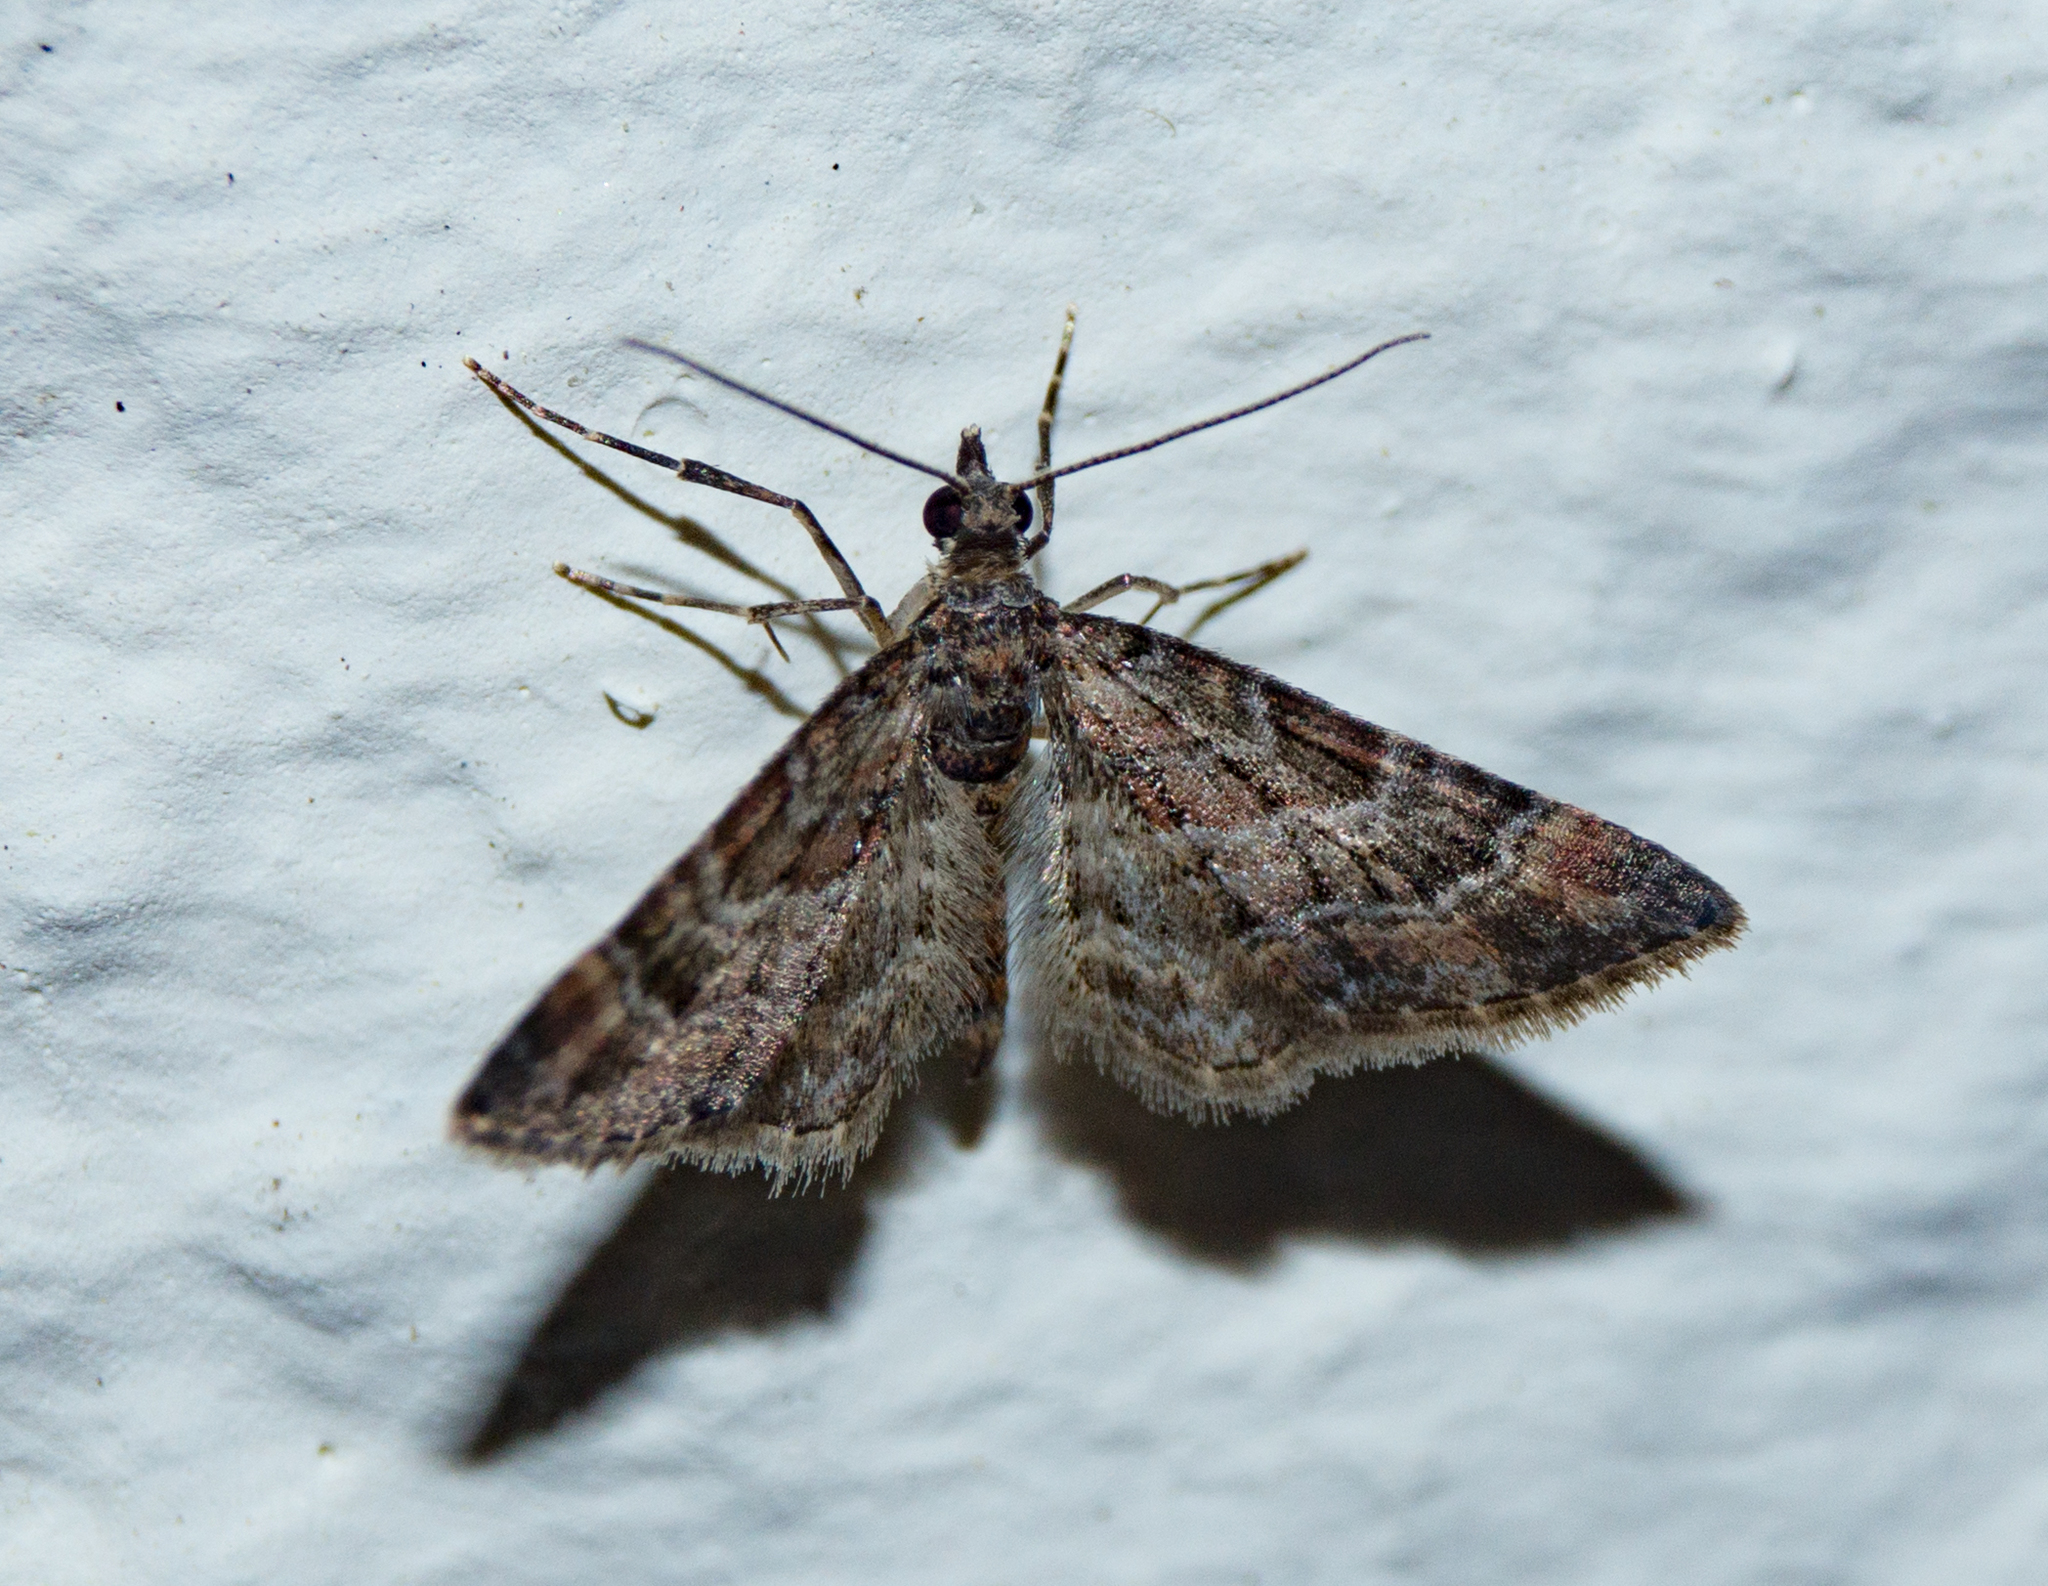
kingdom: Animalia
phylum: Arthropoda
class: Insecta
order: Lepidoptera
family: Geometridae
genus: Gymnoscelis
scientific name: Gymnoscelis rufifasciata
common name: Double-striped pug
